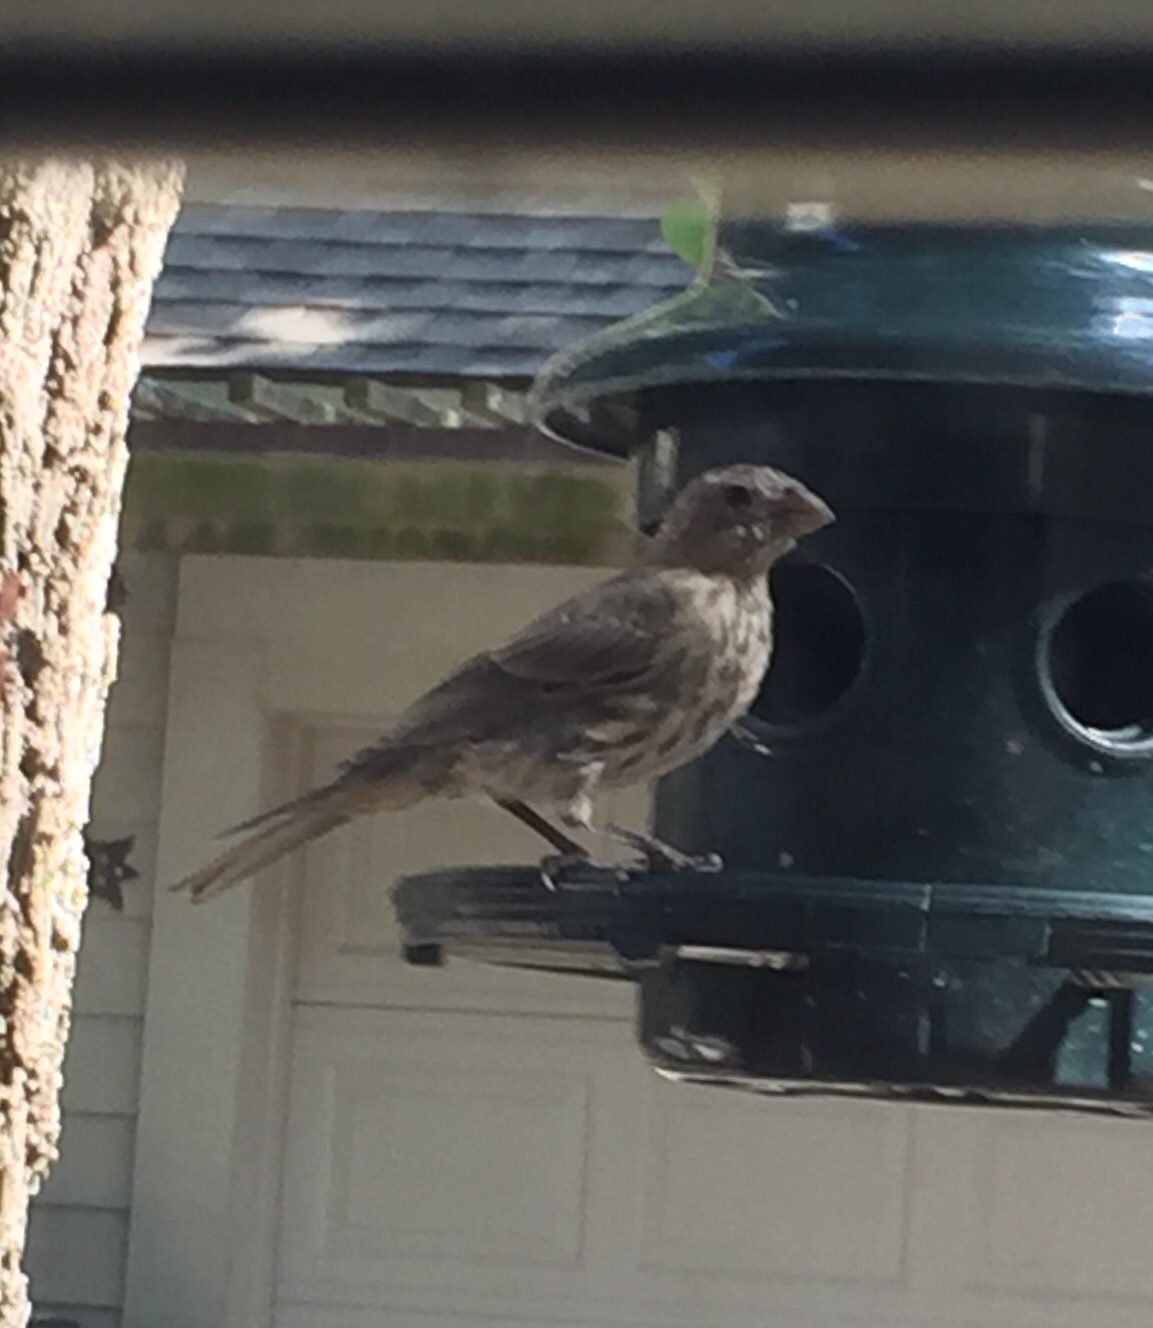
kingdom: Animalia
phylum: Chordata
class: Aves
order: Passeriformes
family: Fringillidae
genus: Haemorhous
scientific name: Haemorhous mexicanus
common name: House finch
